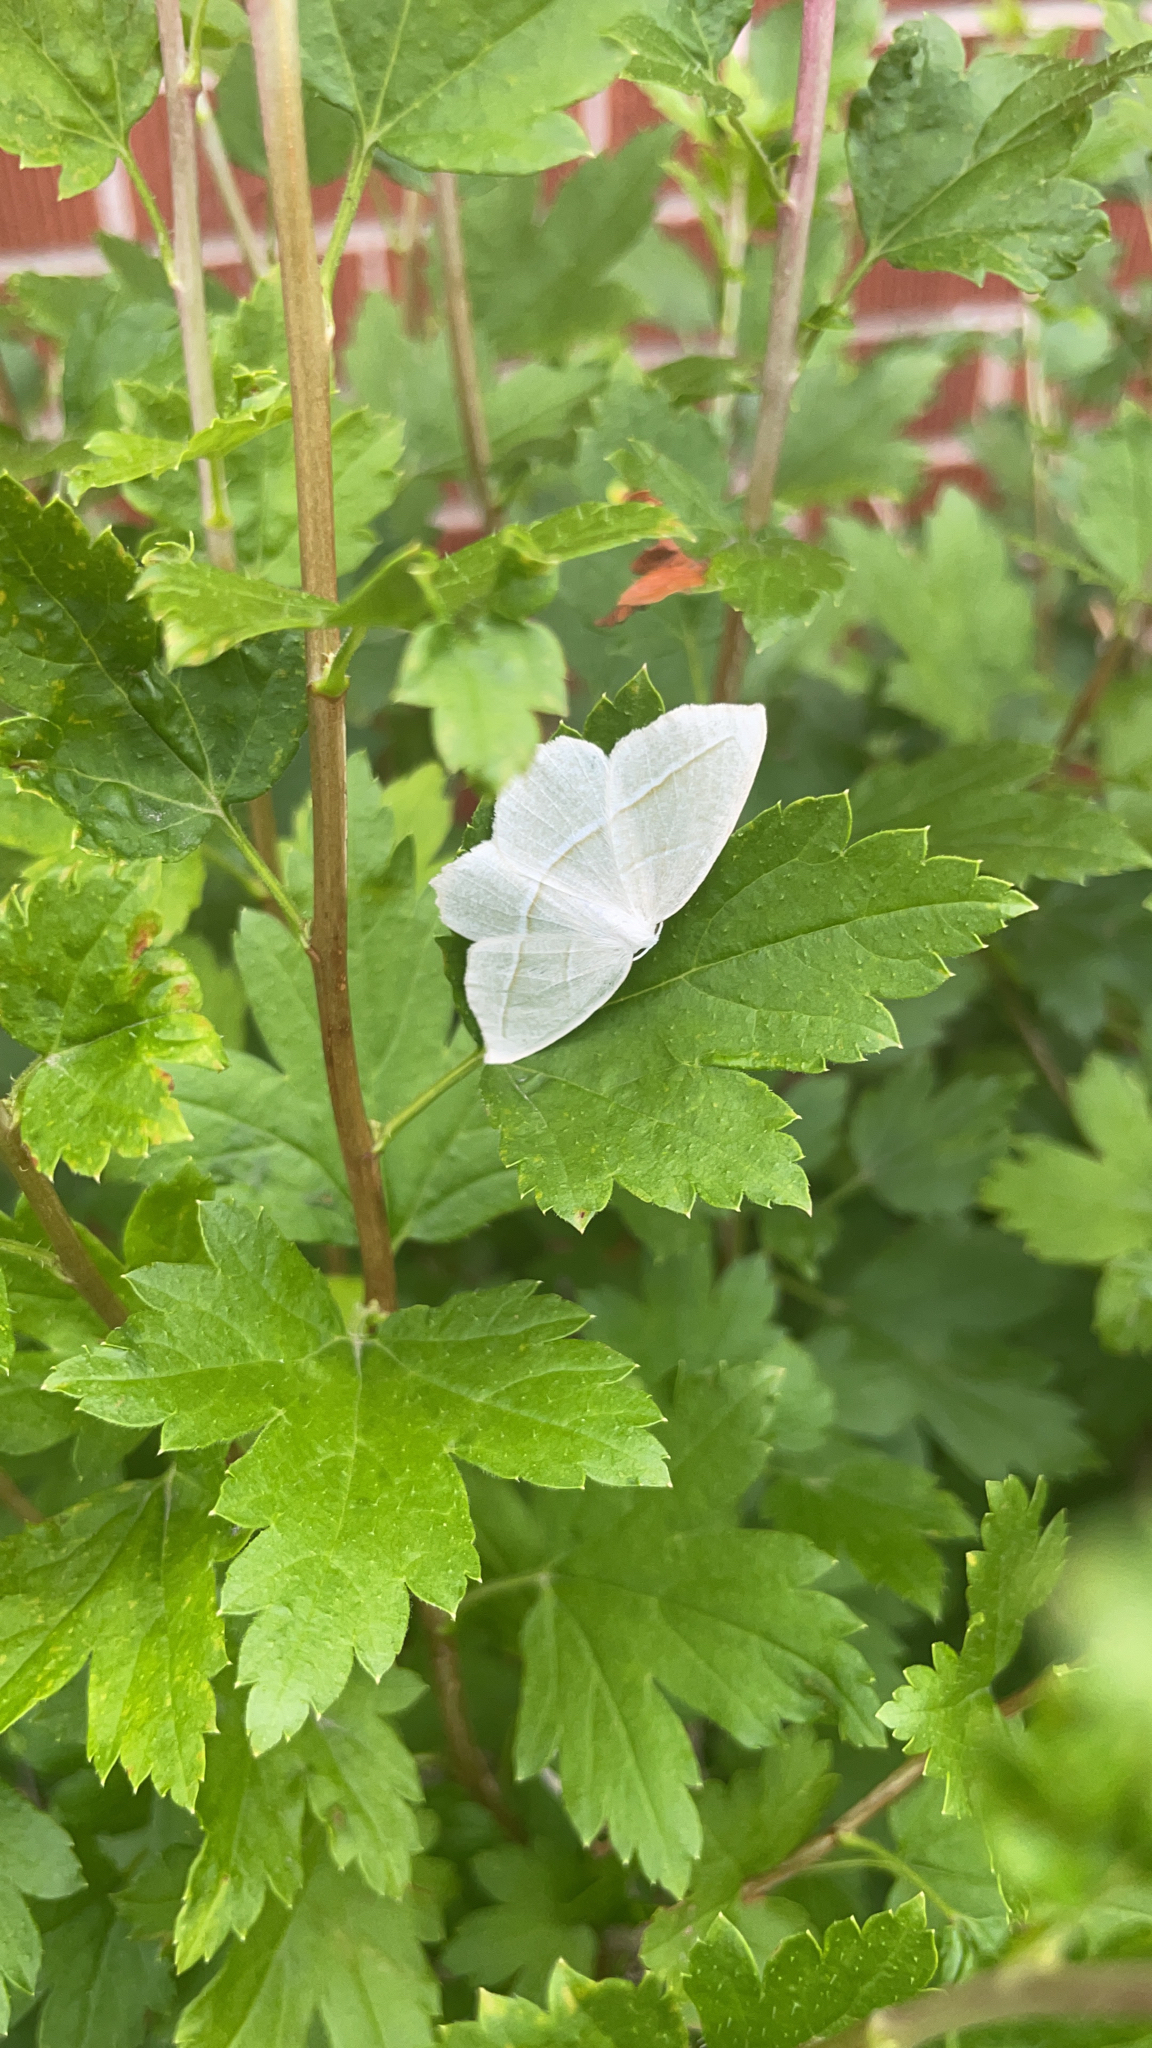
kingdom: Animalia
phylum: Arthropoda
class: Insecta
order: Lepidoptera
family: Geometridae
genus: Campaea
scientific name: Campaea perlata
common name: Fringed looper
